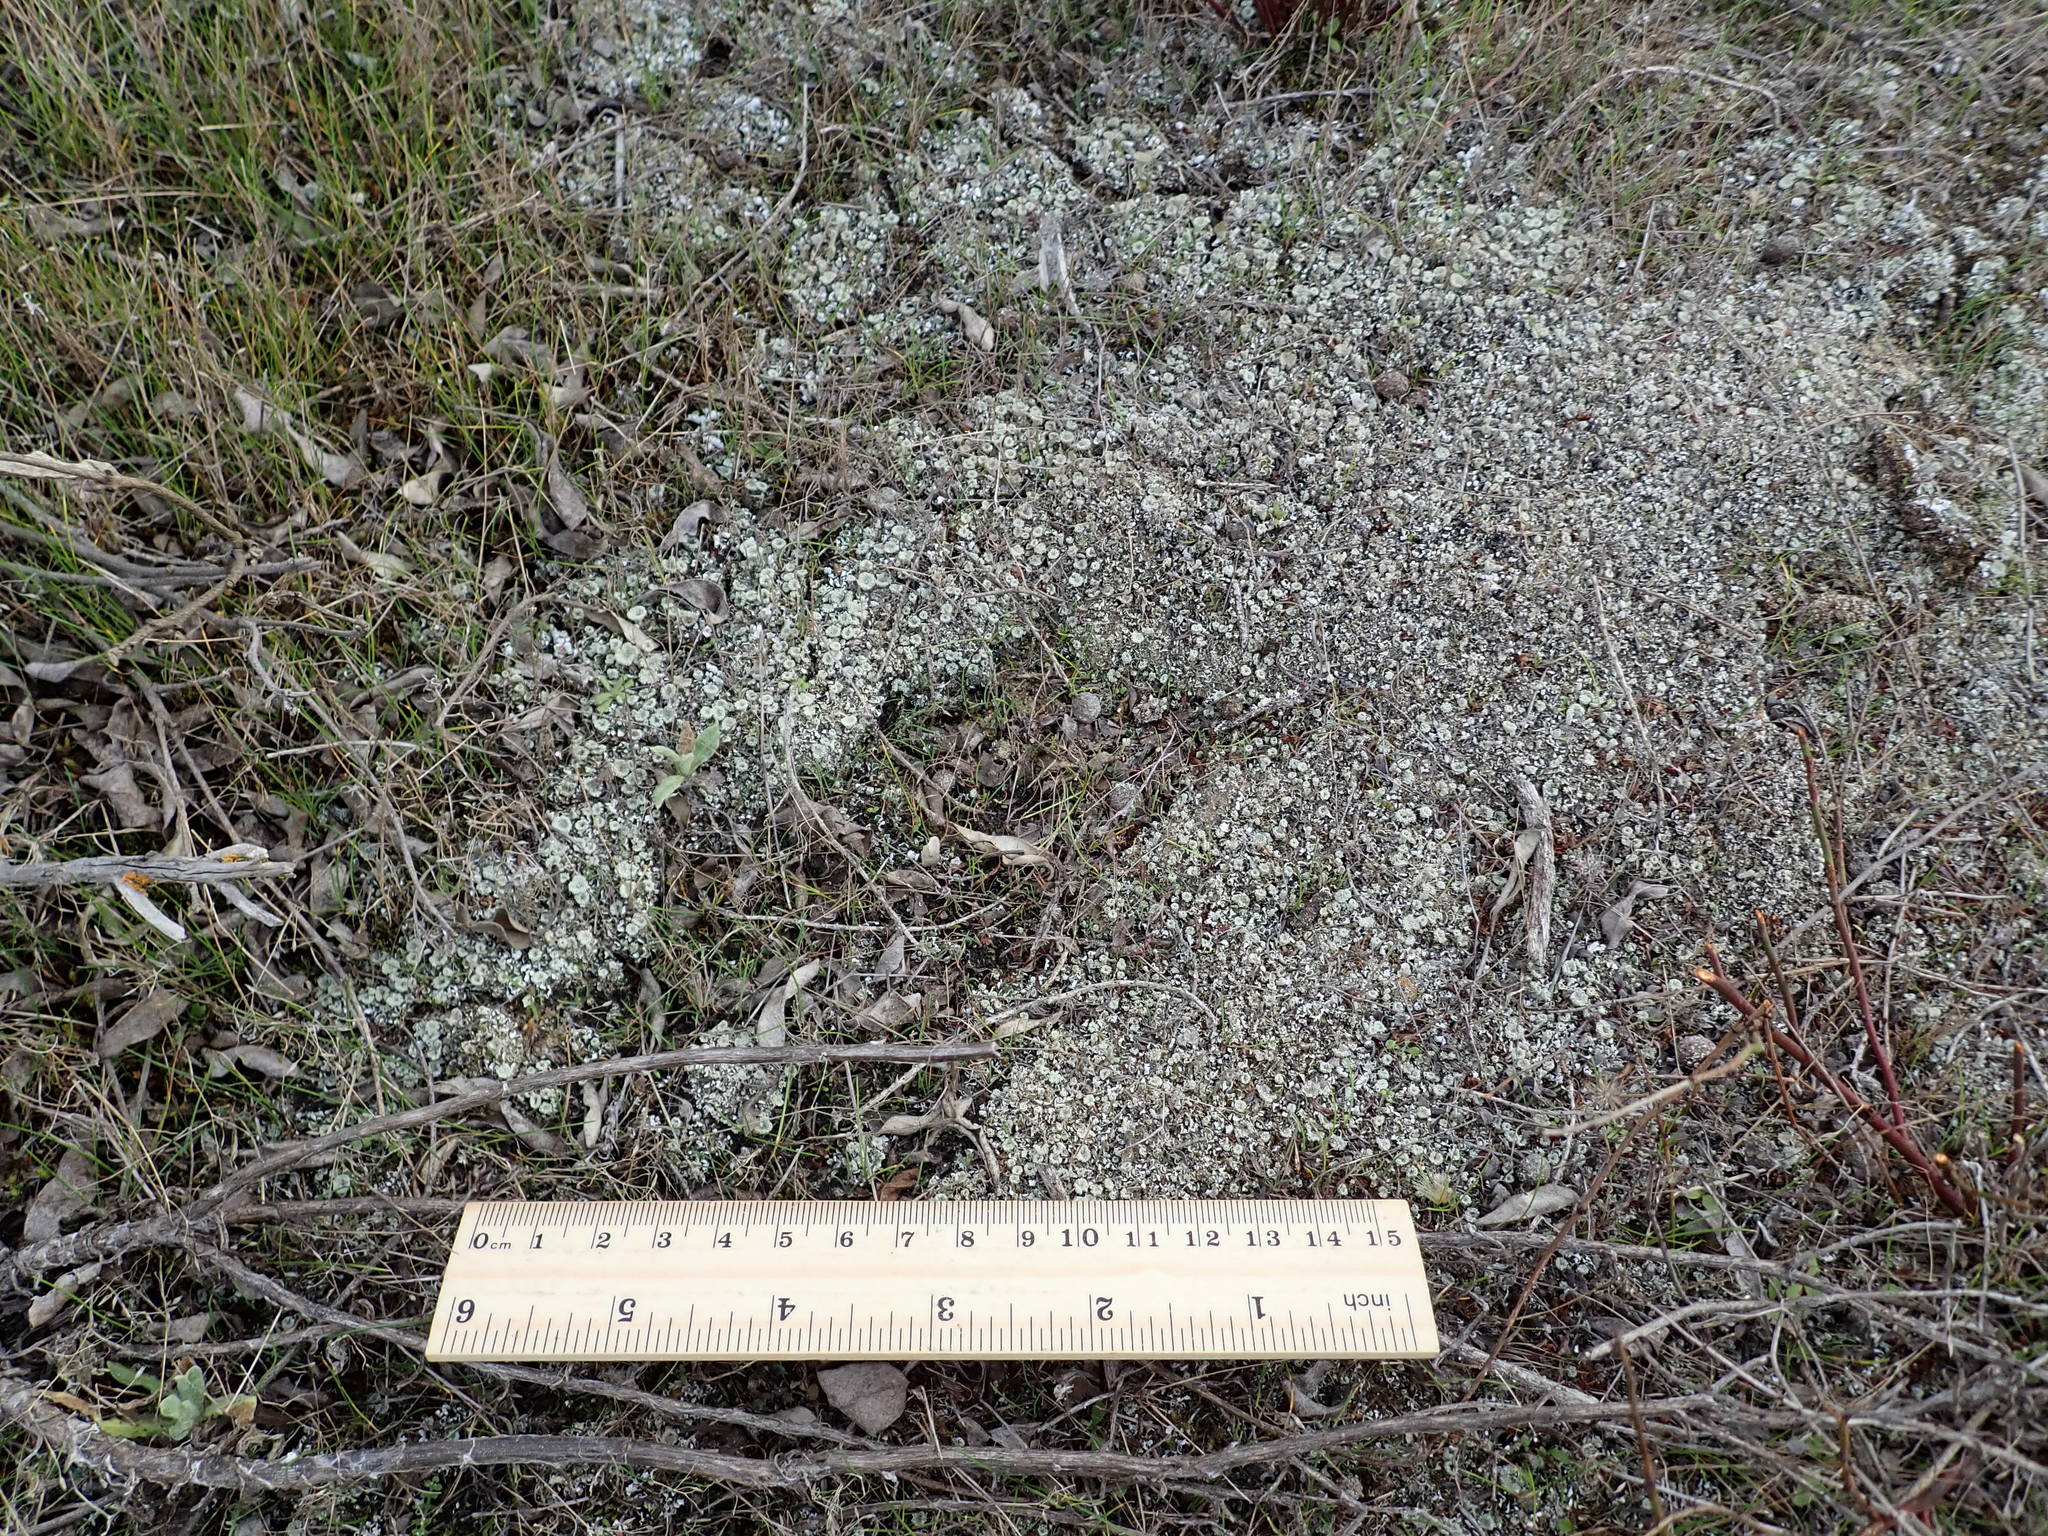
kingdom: Fungi
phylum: Ascomycota
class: Lecanoromycetes
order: Lecanorales
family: Cladoniaceae
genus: Cladonia
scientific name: Cladonia pyxidata
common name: Pebbled pixie cup
